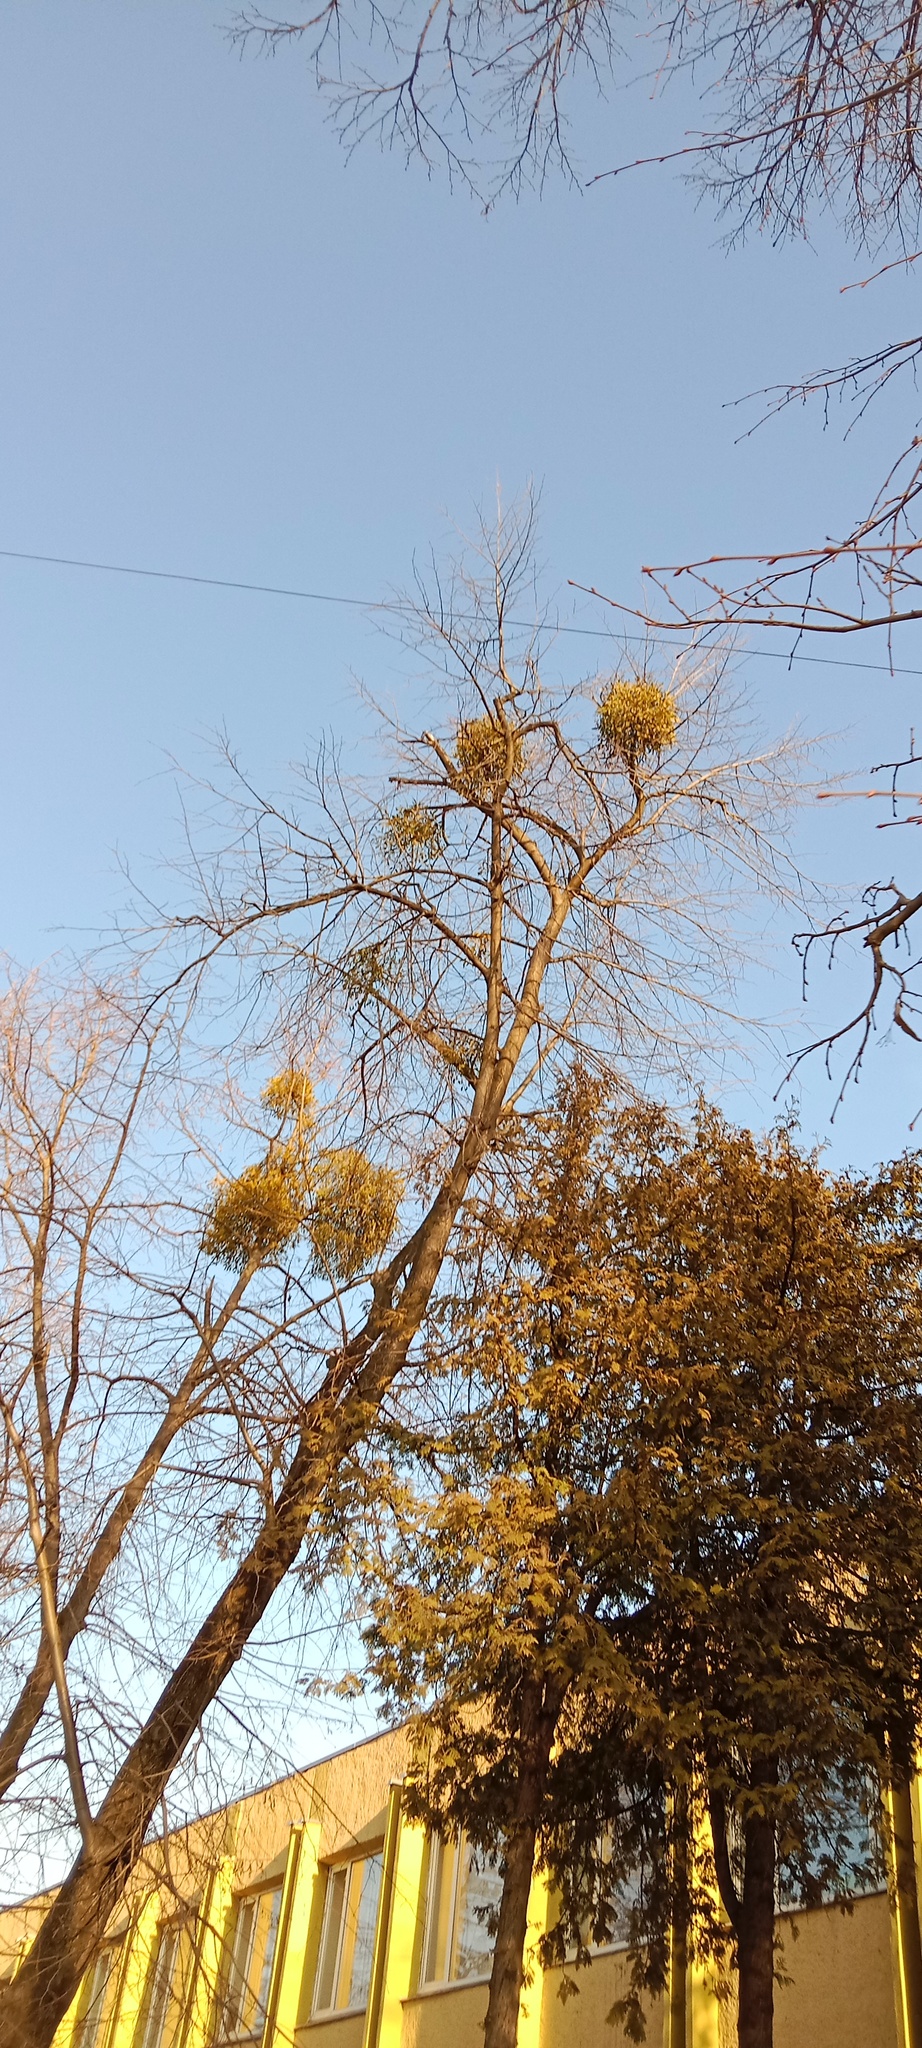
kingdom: Plantae
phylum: Tracheophyta
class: Magnoliopsida
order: Santalales
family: Viscaceae
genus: Viscum
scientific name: Viscum album
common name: Mistletoe
